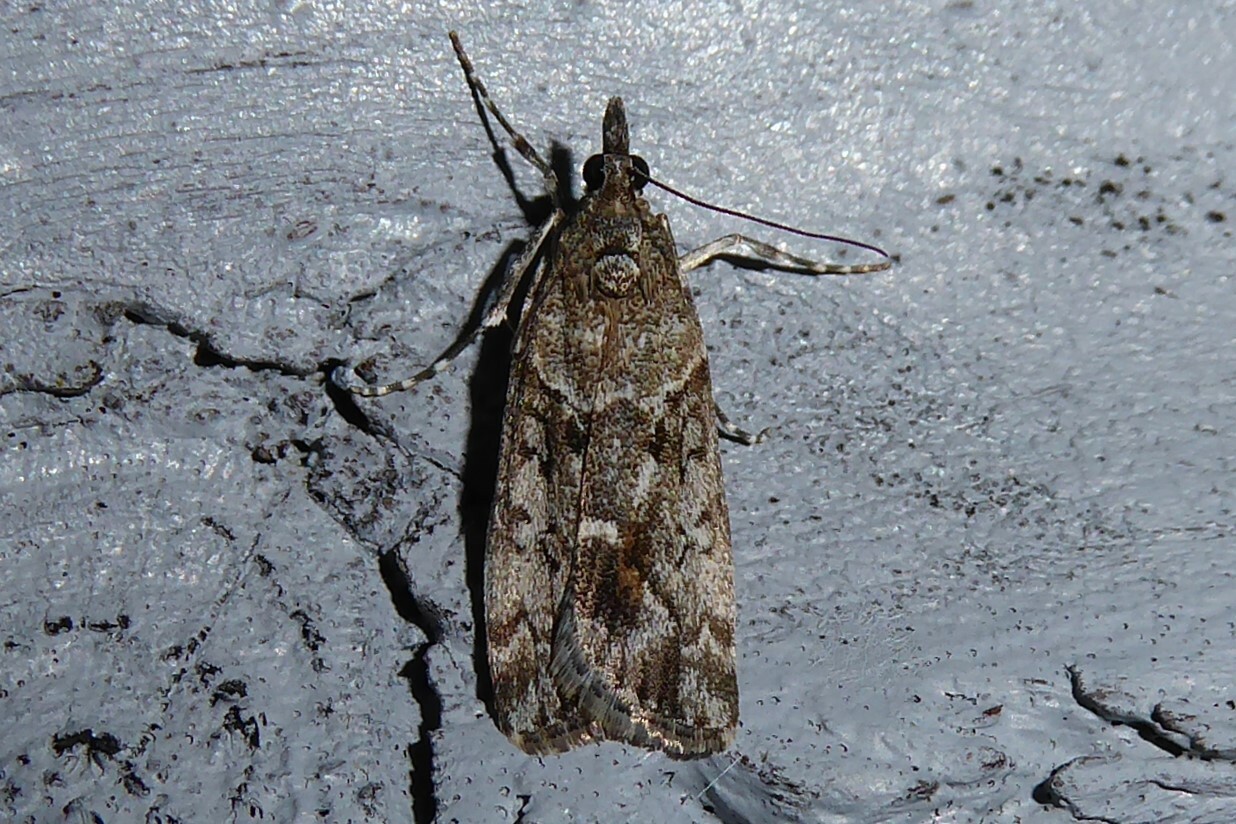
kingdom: Animalia
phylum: Arthropoda
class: Insecta
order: Lepidoptera
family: Crambidae
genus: Eudonia
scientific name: Eudonia submarginalis
